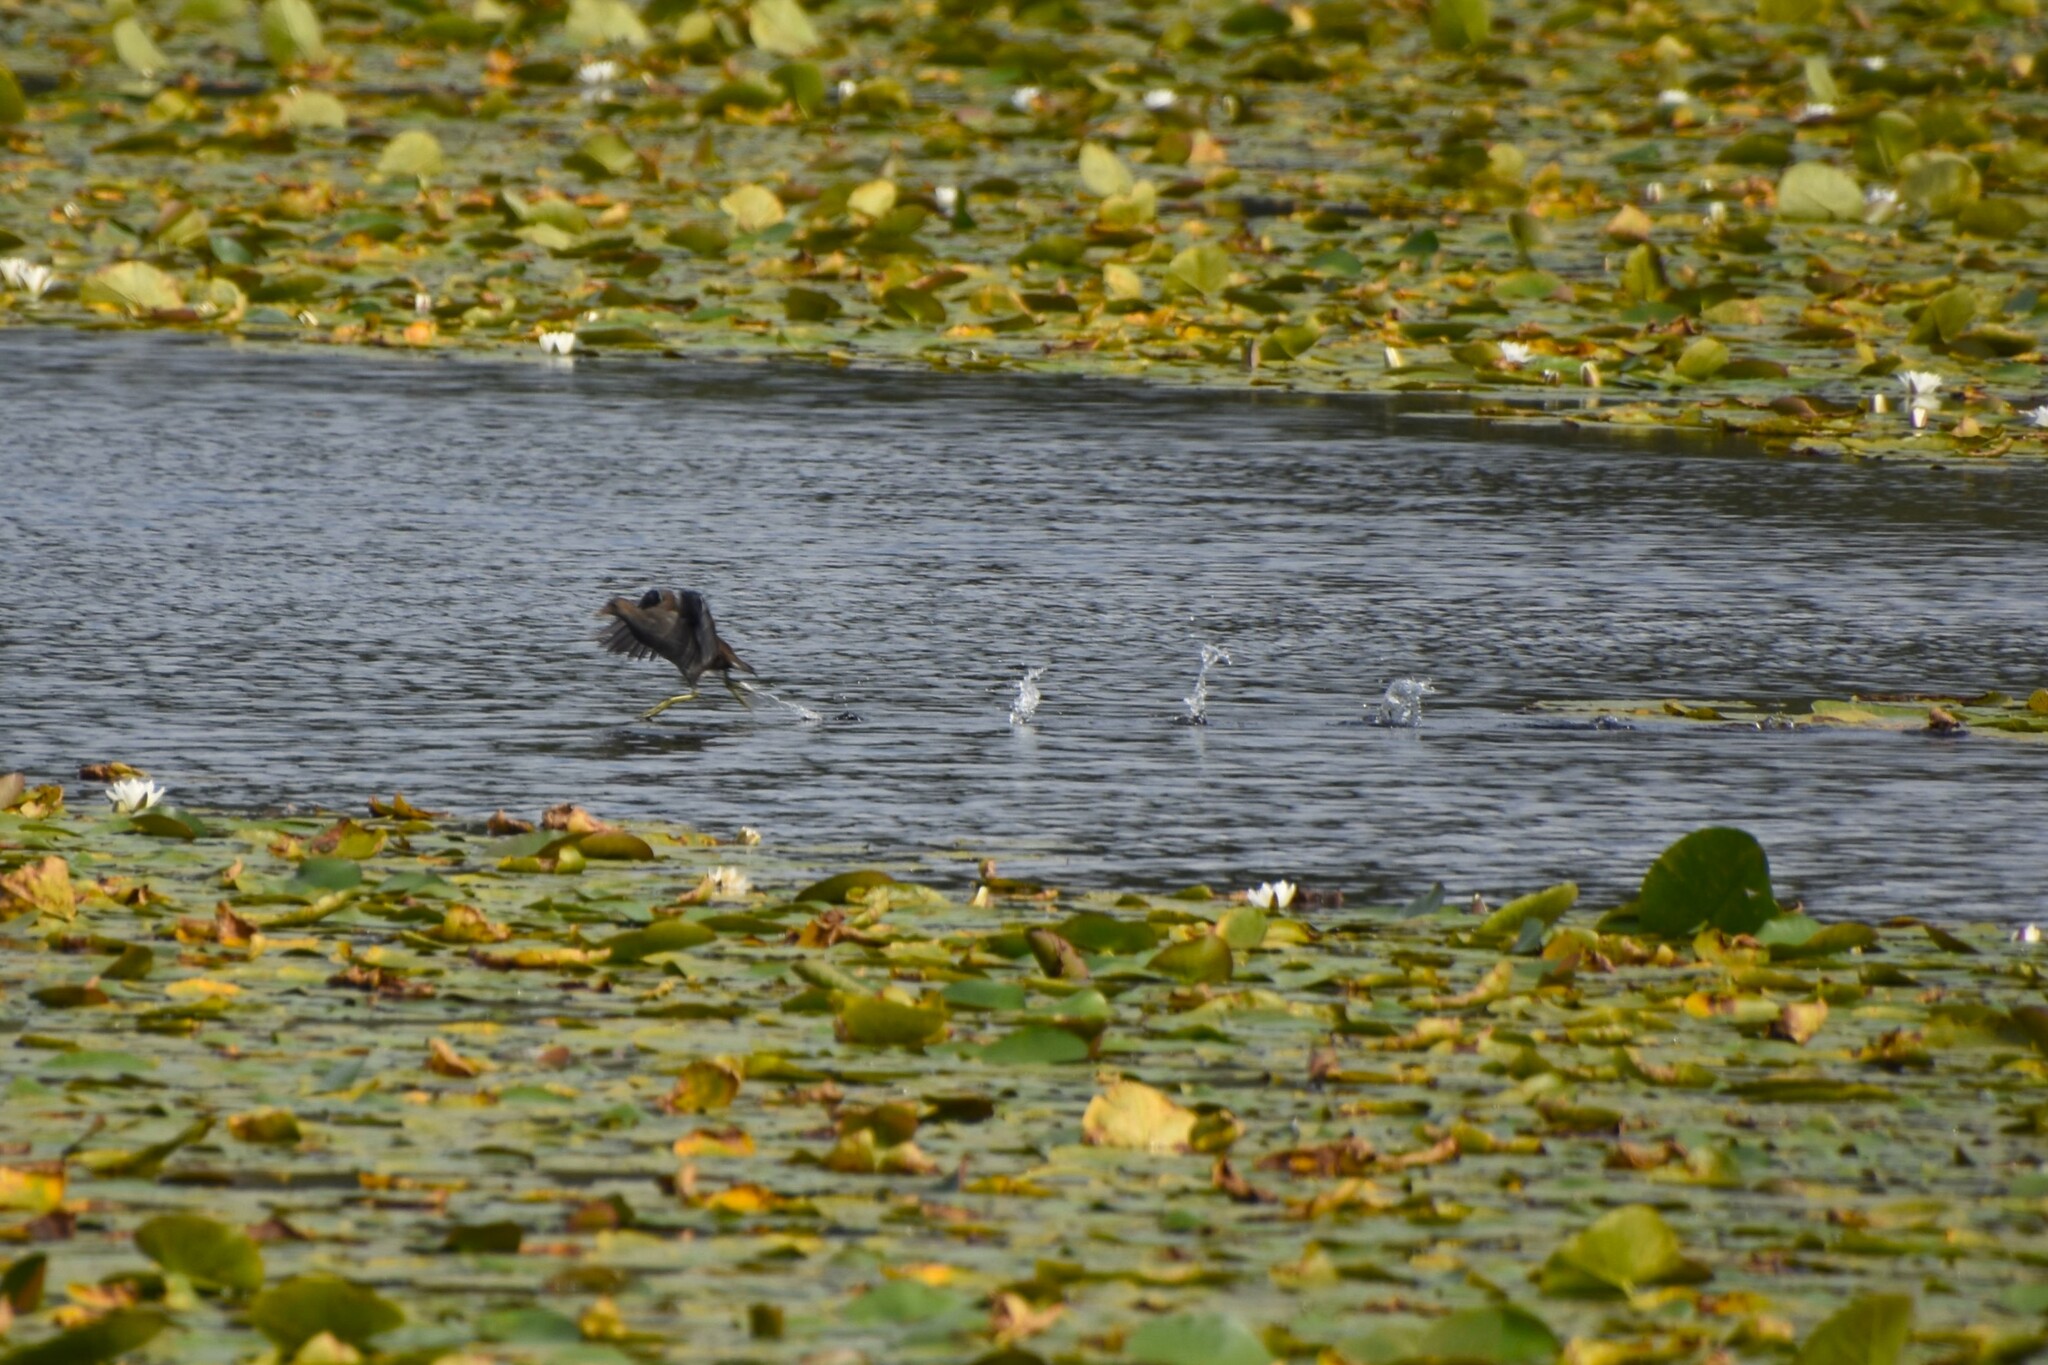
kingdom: Animalia
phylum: Chordata
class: Aves
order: Gruiformes
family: Rallidae
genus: Gallinula
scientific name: Gallinula chloropus
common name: Common moorhen
